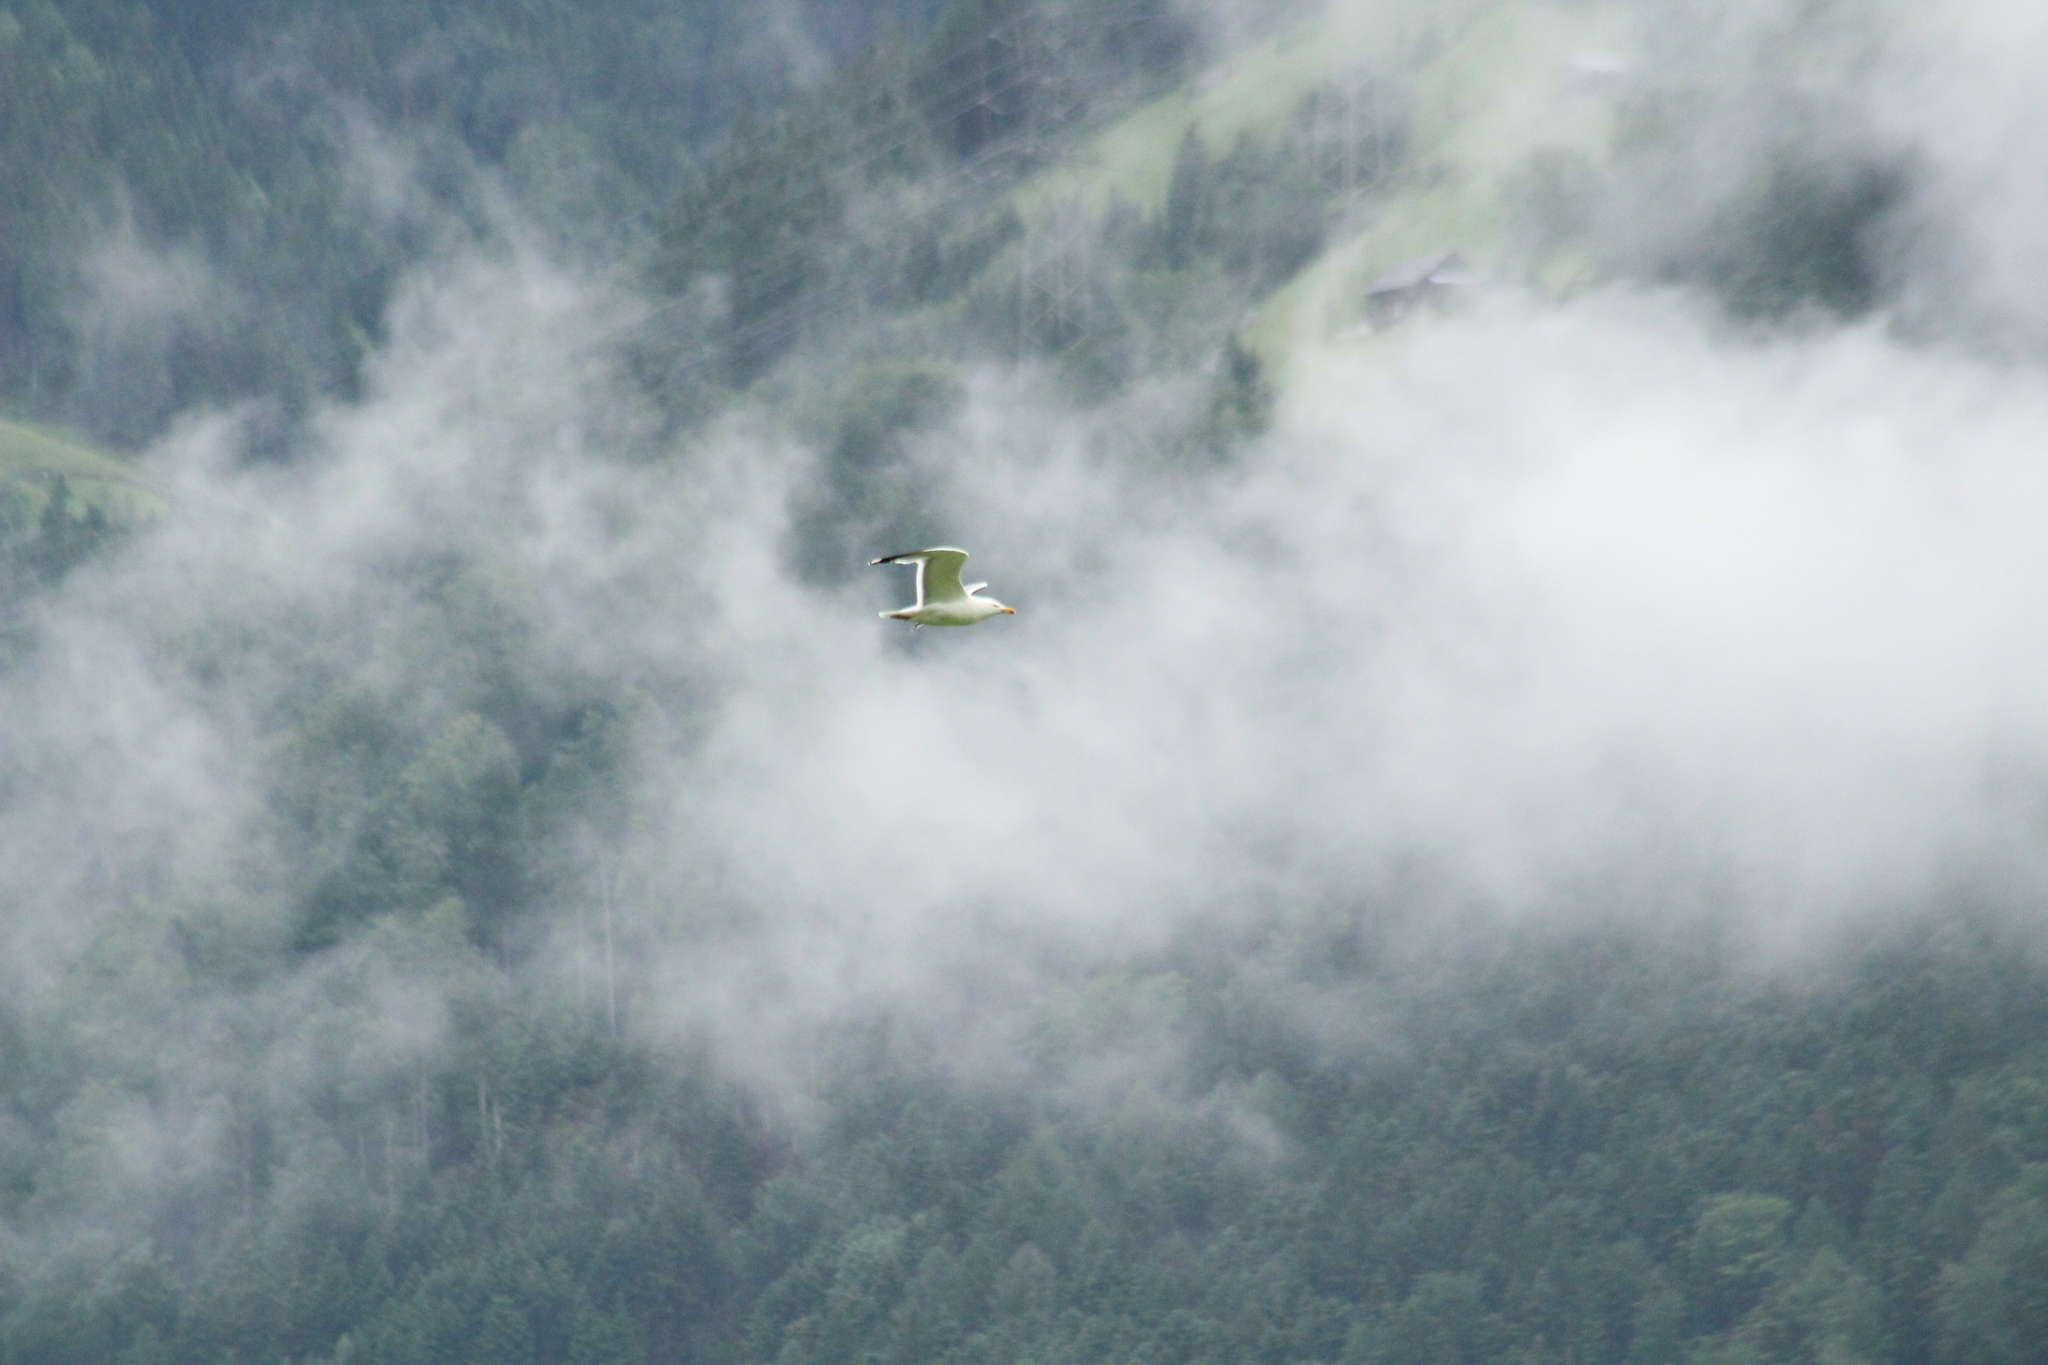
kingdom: Animalia
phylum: Chordata
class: Aves
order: Charadriiformes
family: Laridae
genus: Larus
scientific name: Larus michahellis
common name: Yellow-legged gull
